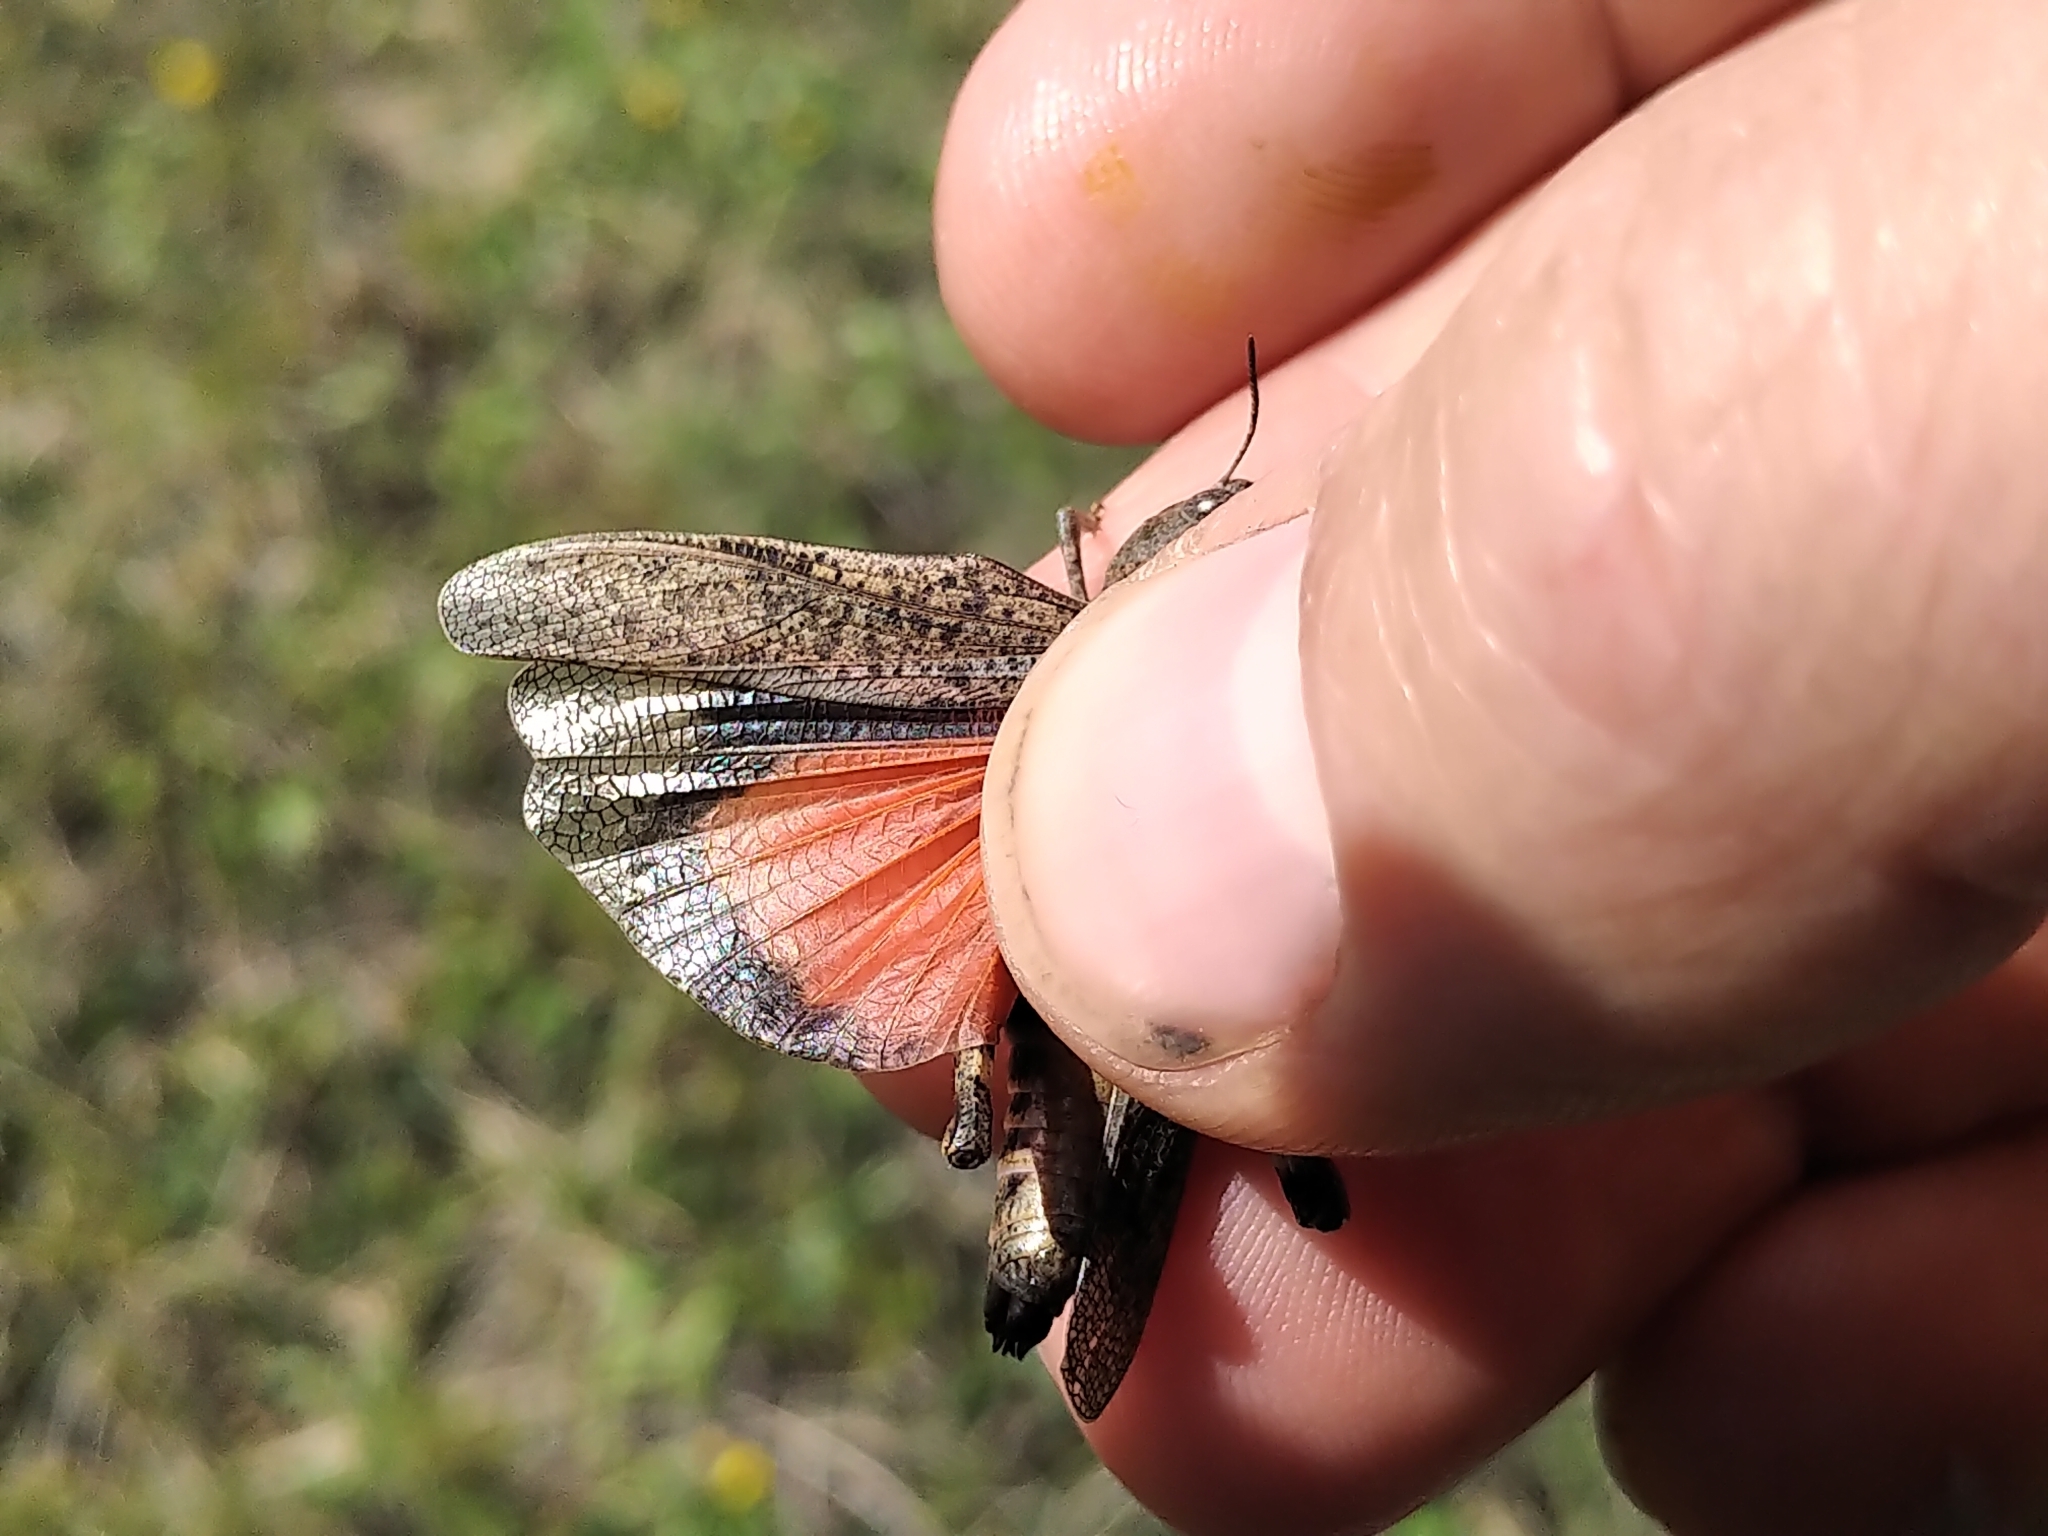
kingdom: Animalia
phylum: Arthropoda
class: Insecta
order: Orthoptera
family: Acrididae
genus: Arphia
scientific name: Arphia conspersa
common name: Speckle-winged rangeland grasshopper
